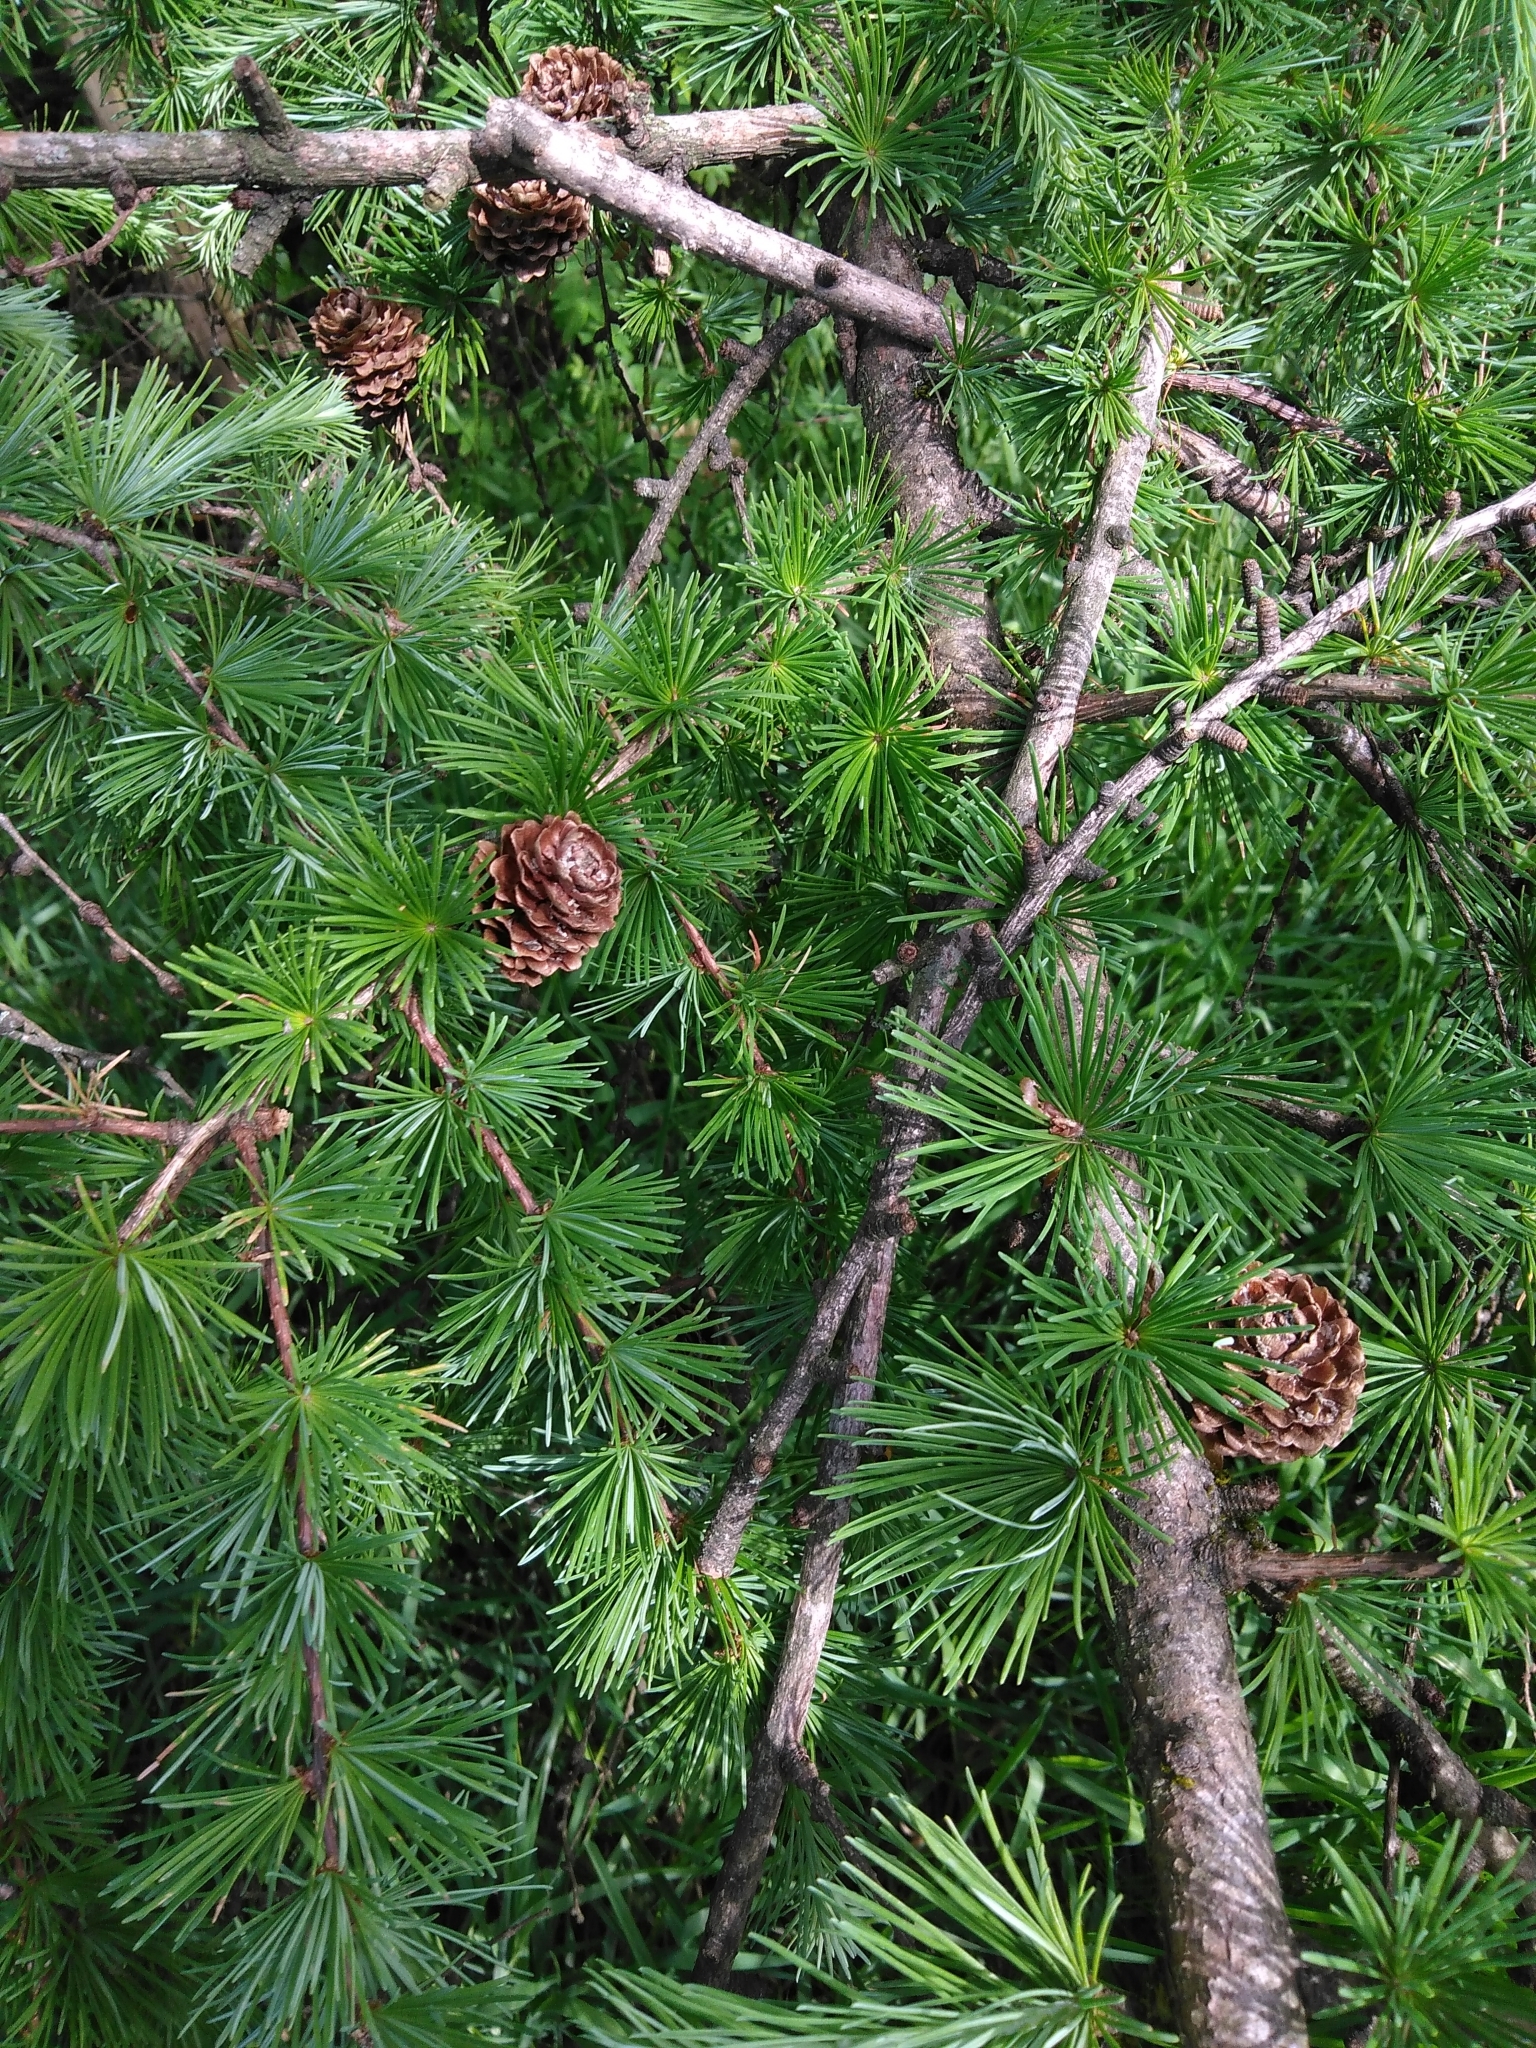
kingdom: Plantae
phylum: Tracheophyta
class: Pinopsida
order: Pinales
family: Pinaceae
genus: Larix
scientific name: Larix decidua
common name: European larch
